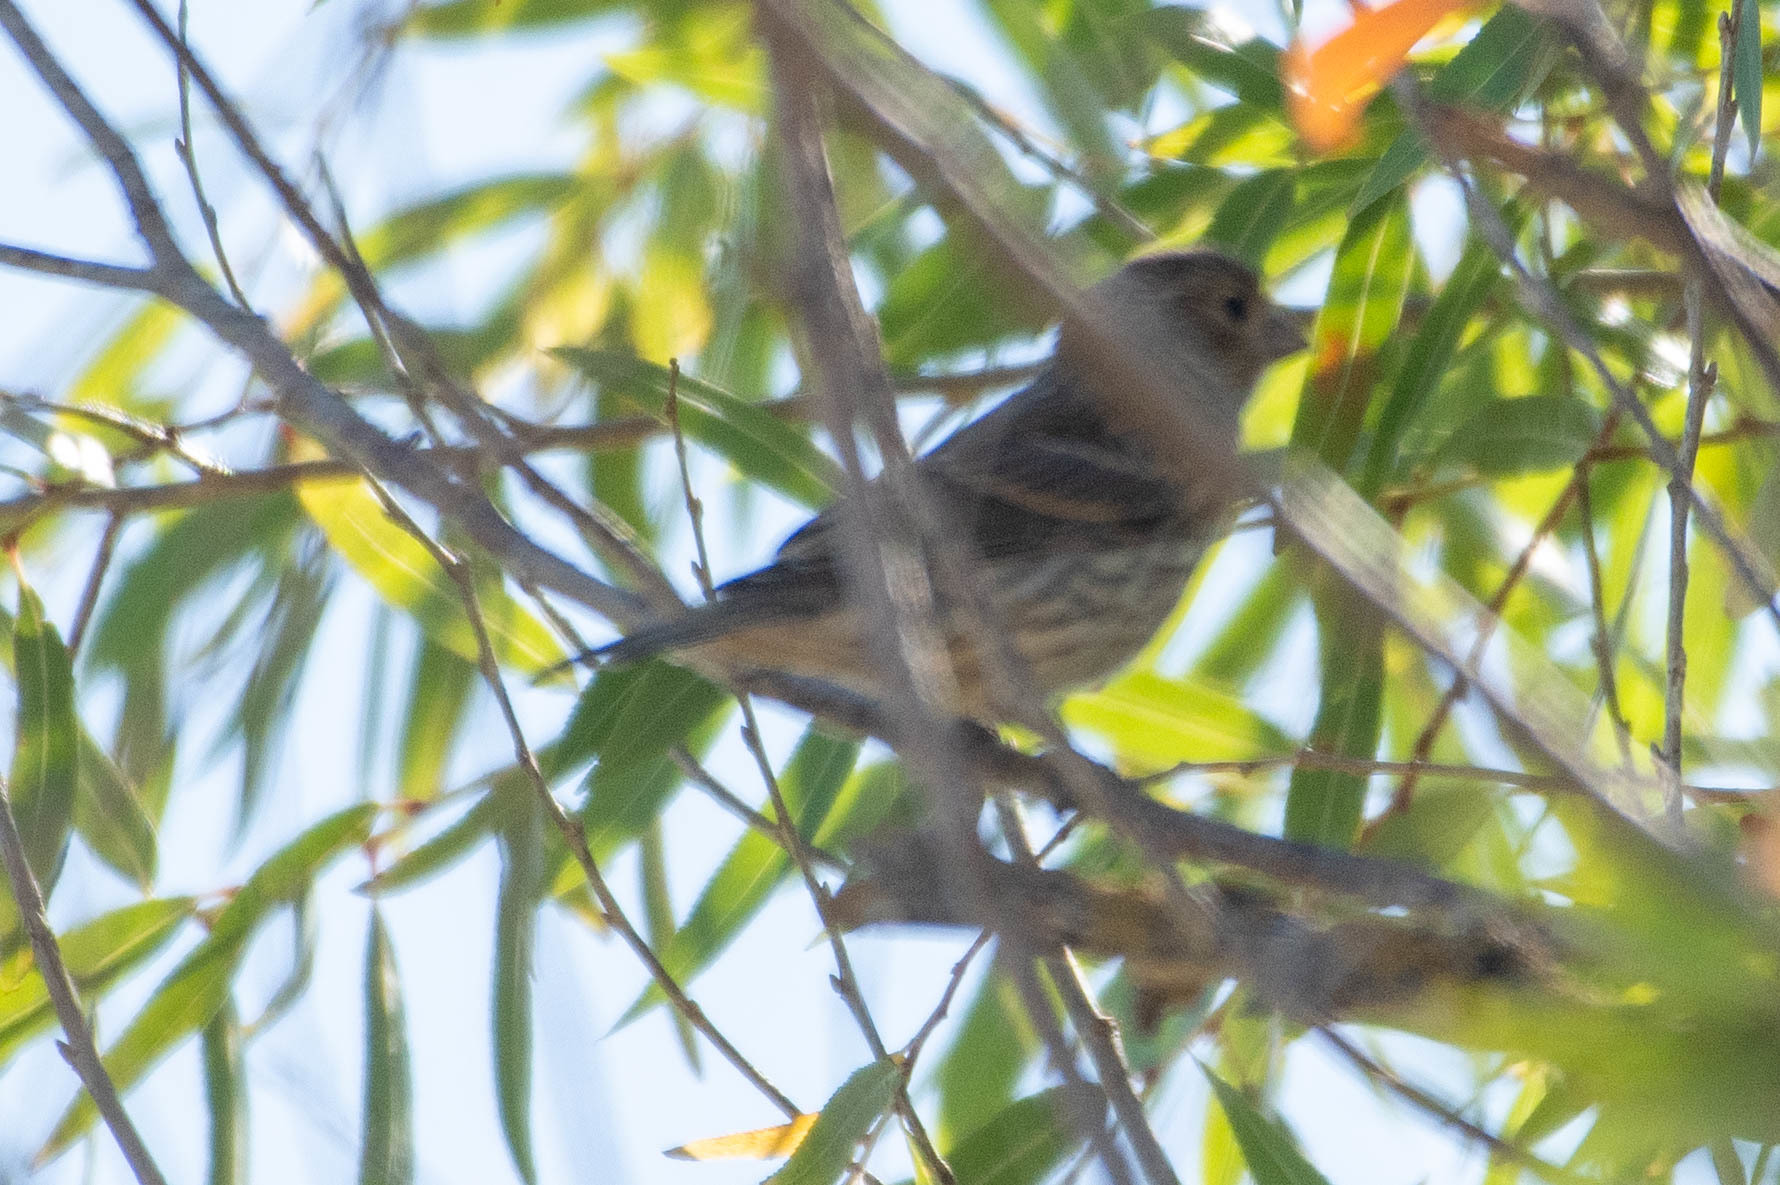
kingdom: Animalia
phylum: Chordata
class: Aves
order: Passeriformes
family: Fringillidae
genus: Haemorhous
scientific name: Haemorhous mexicanus
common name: House finch
